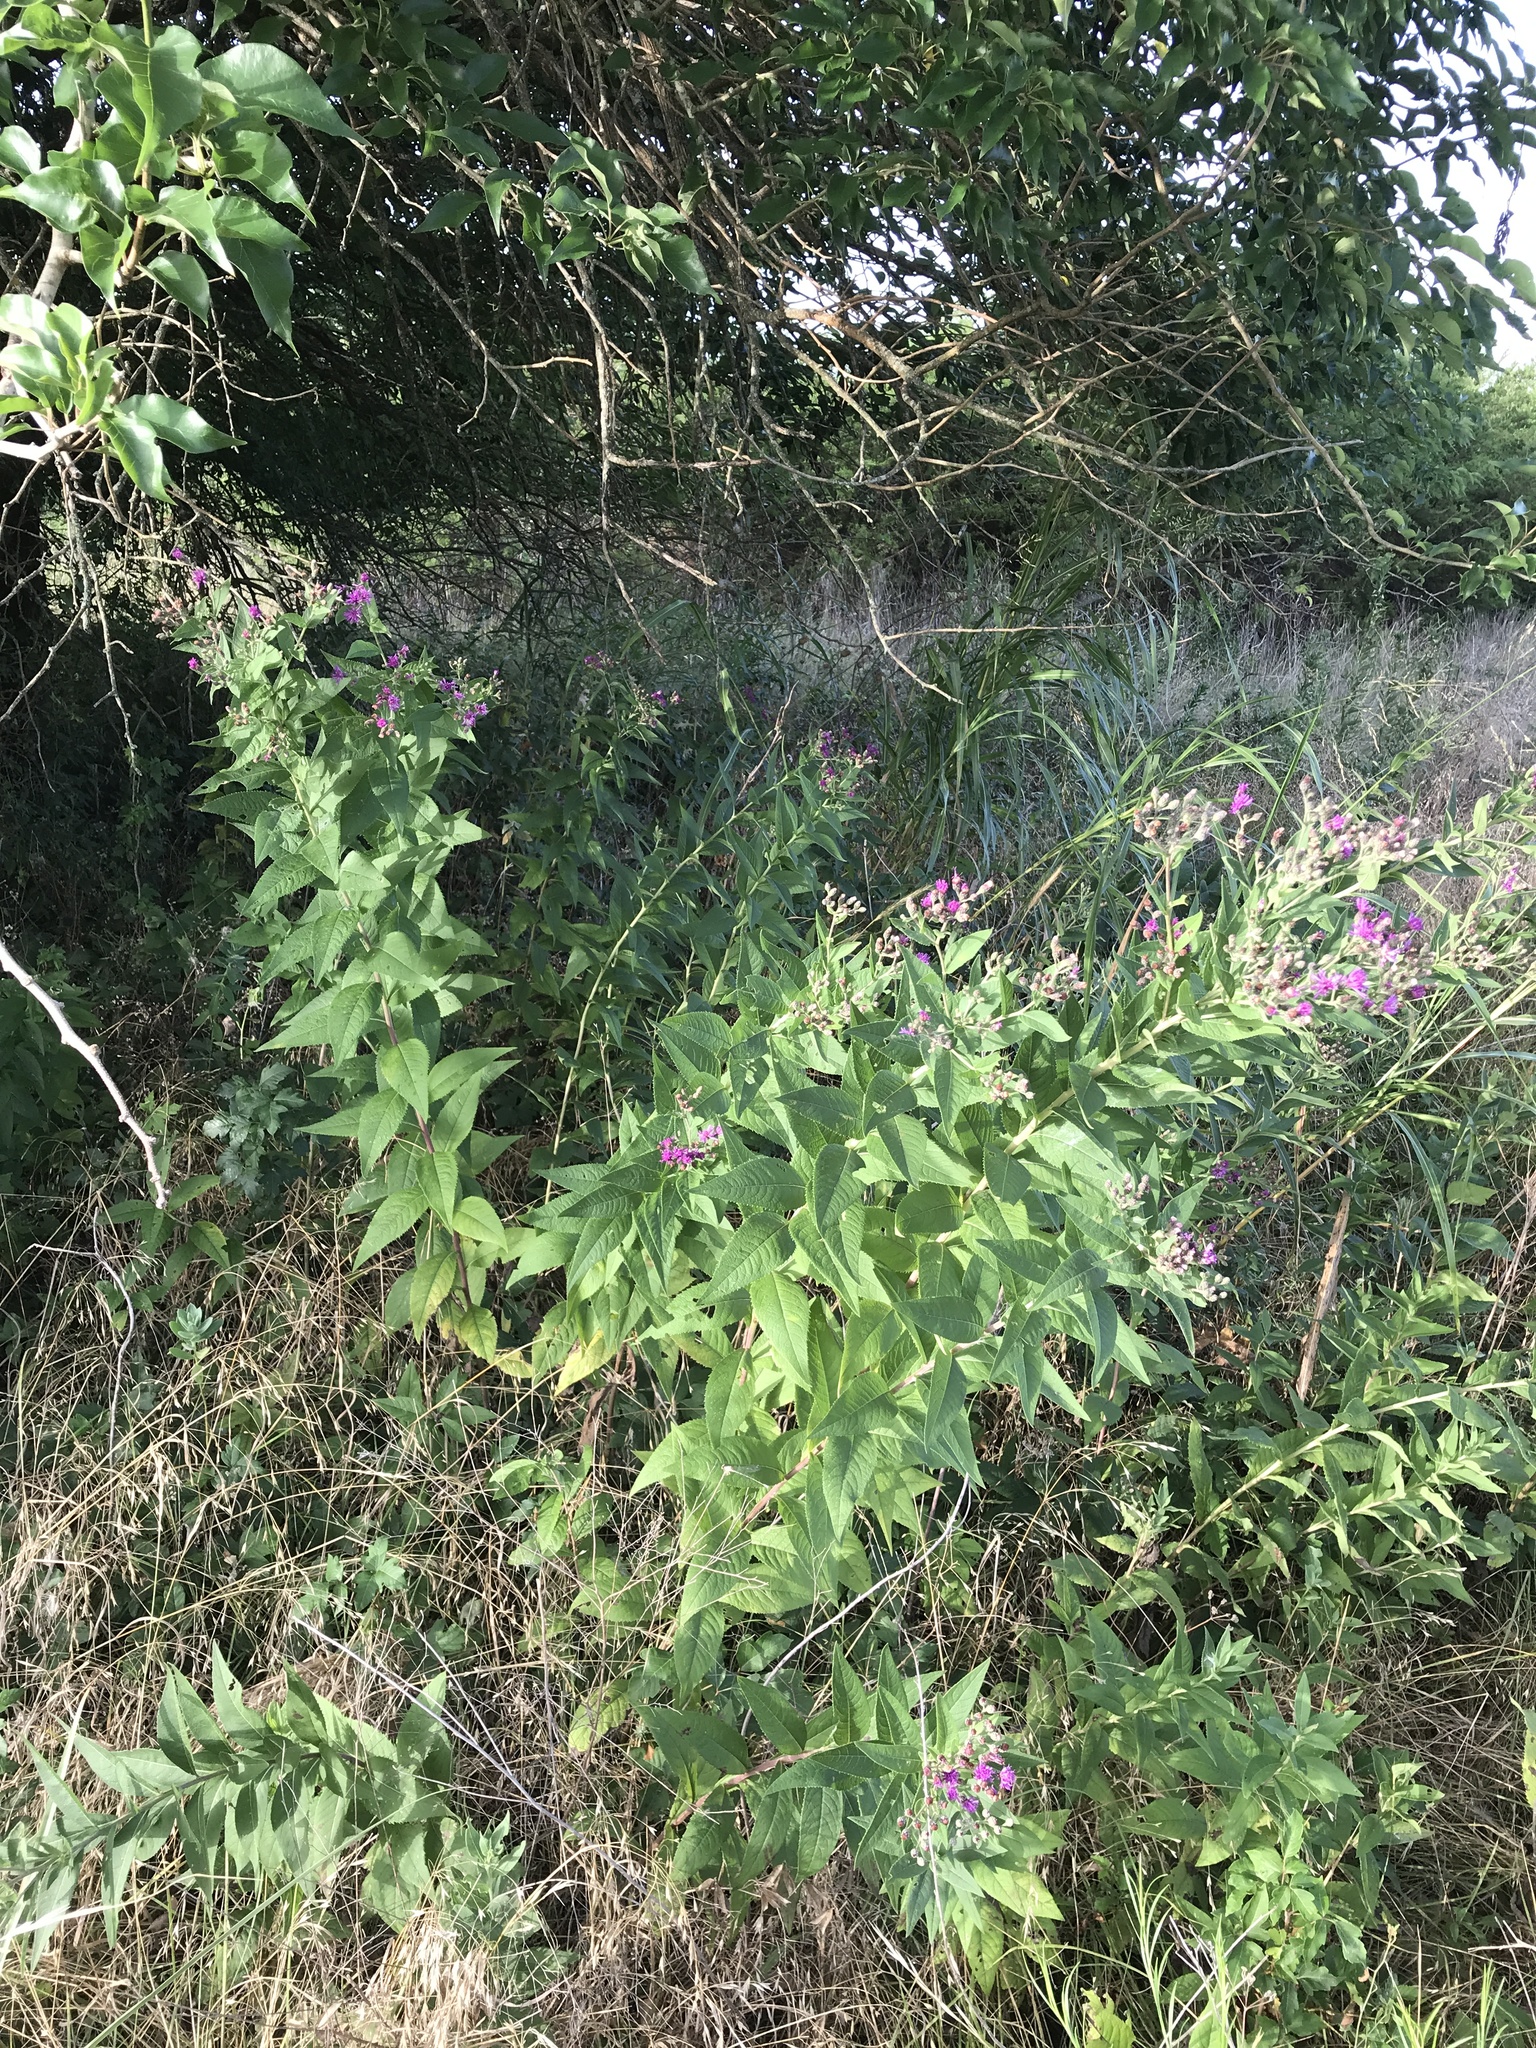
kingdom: Plantae
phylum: Tracheophyta
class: Magnoliopsida
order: Asterales
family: Asteraceae
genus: Vernonia
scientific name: Vernonia baldwinii
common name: Western ironweed
